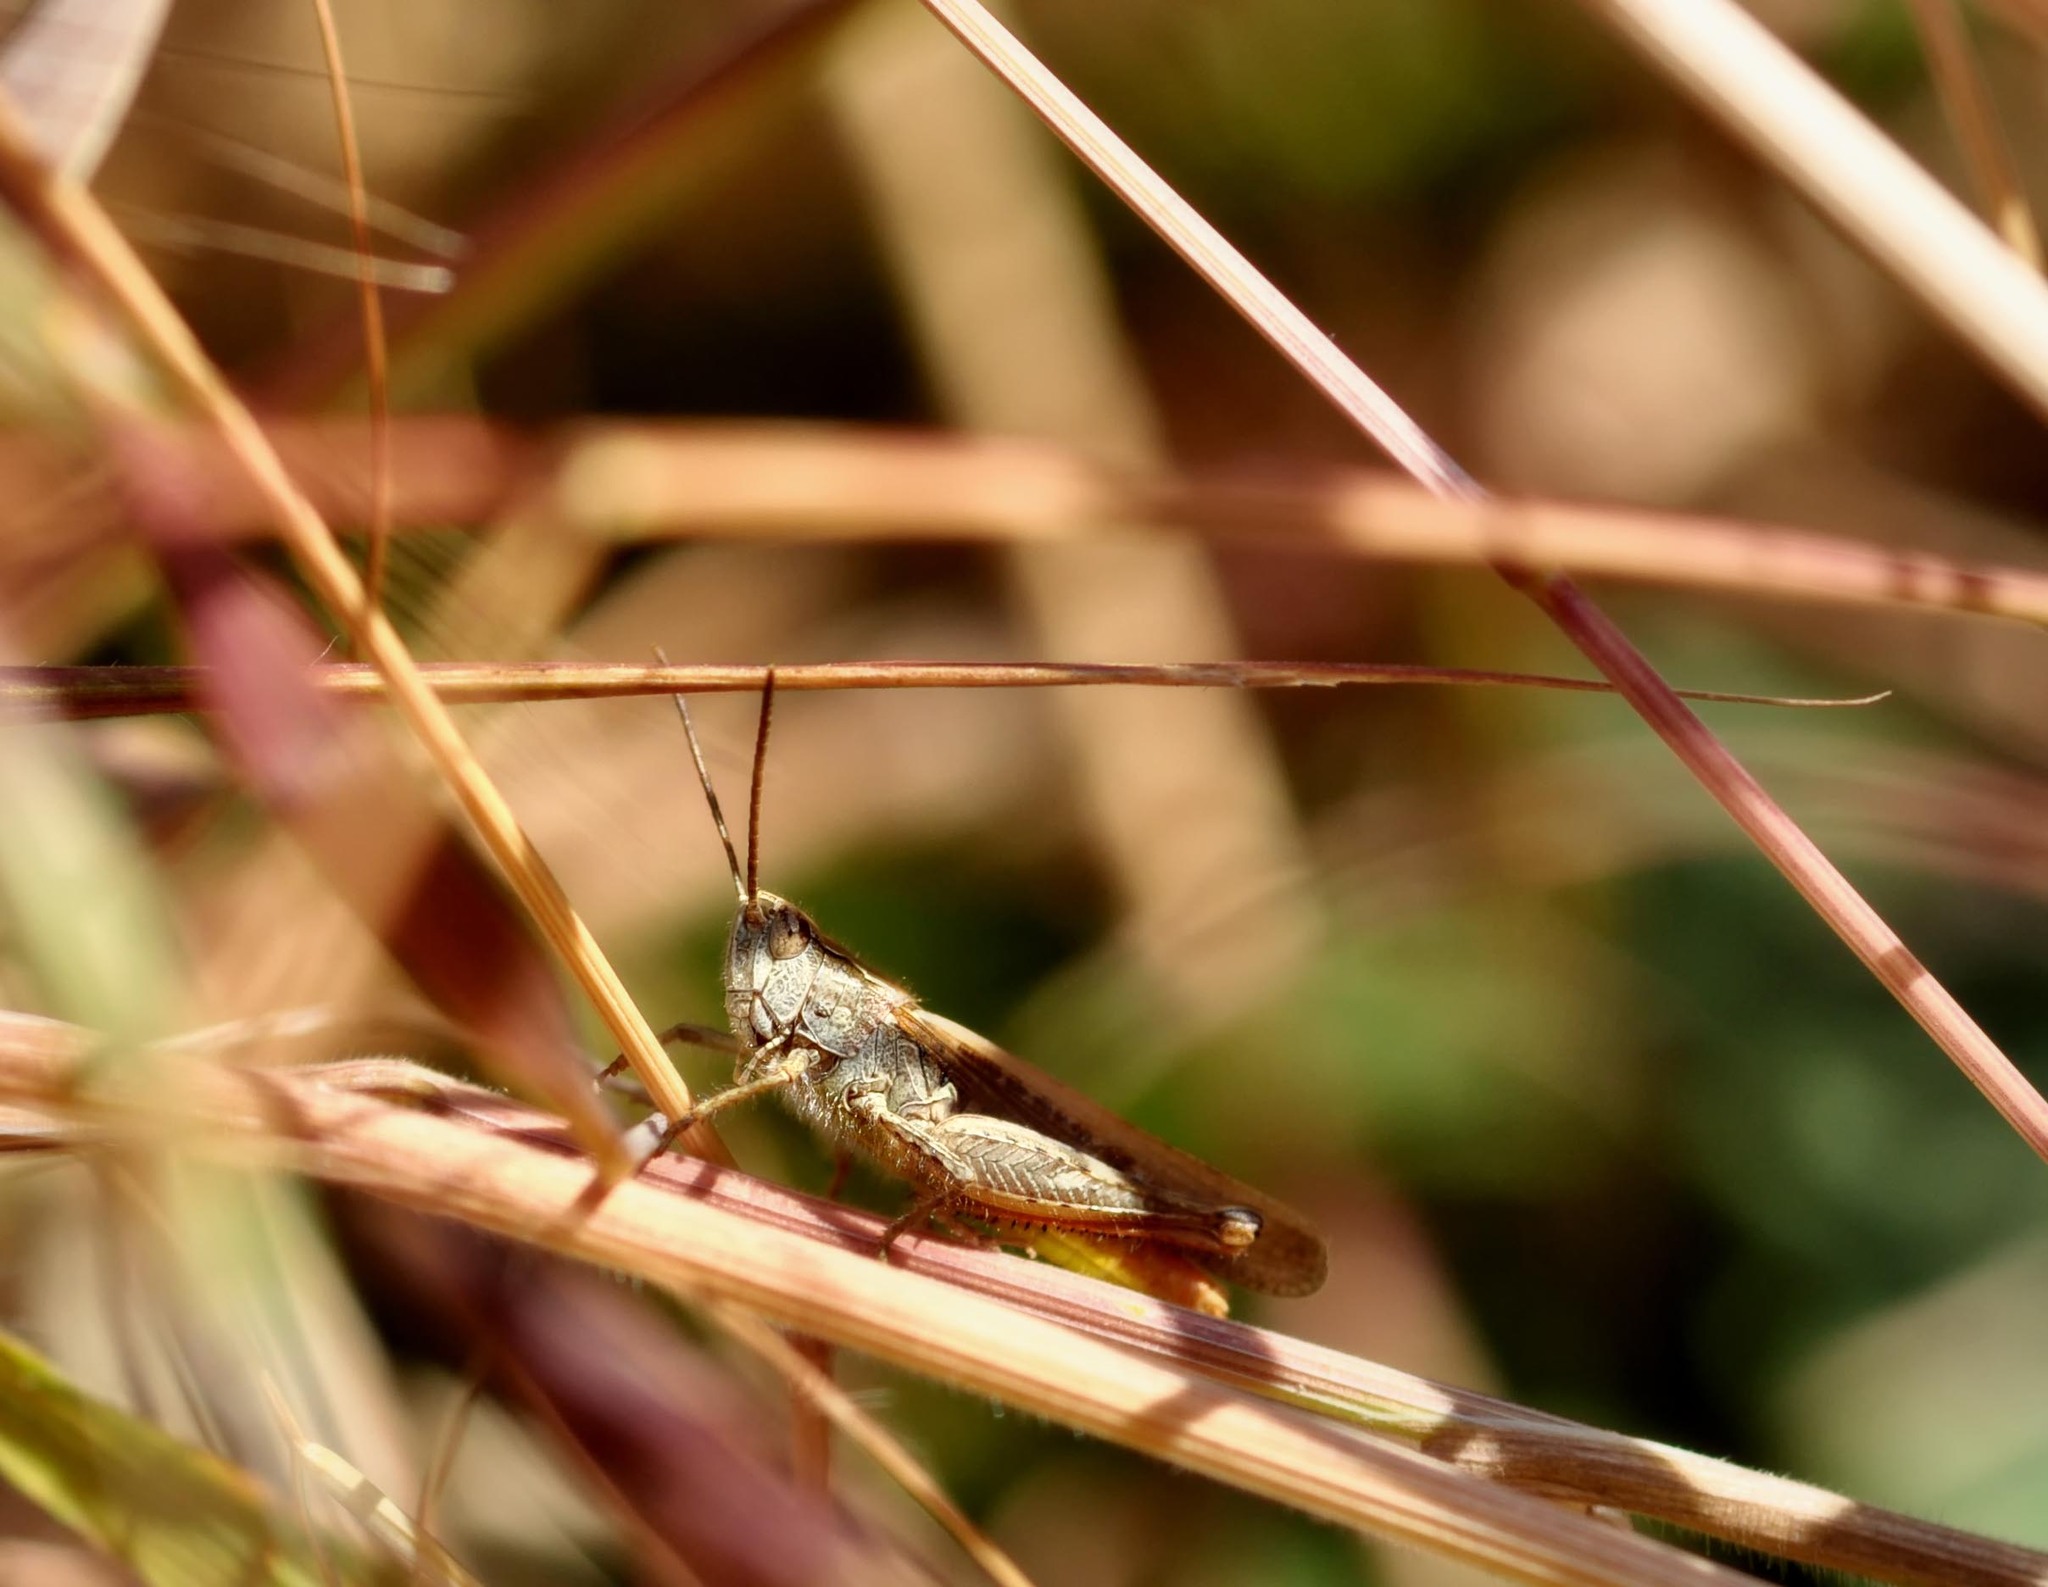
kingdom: Animalia
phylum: Arthropoda
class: Insecta
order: Orthoptera
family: Acrididae
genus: Chorthippus
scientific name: Chorthippus brunneus
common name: Field grasshopper
